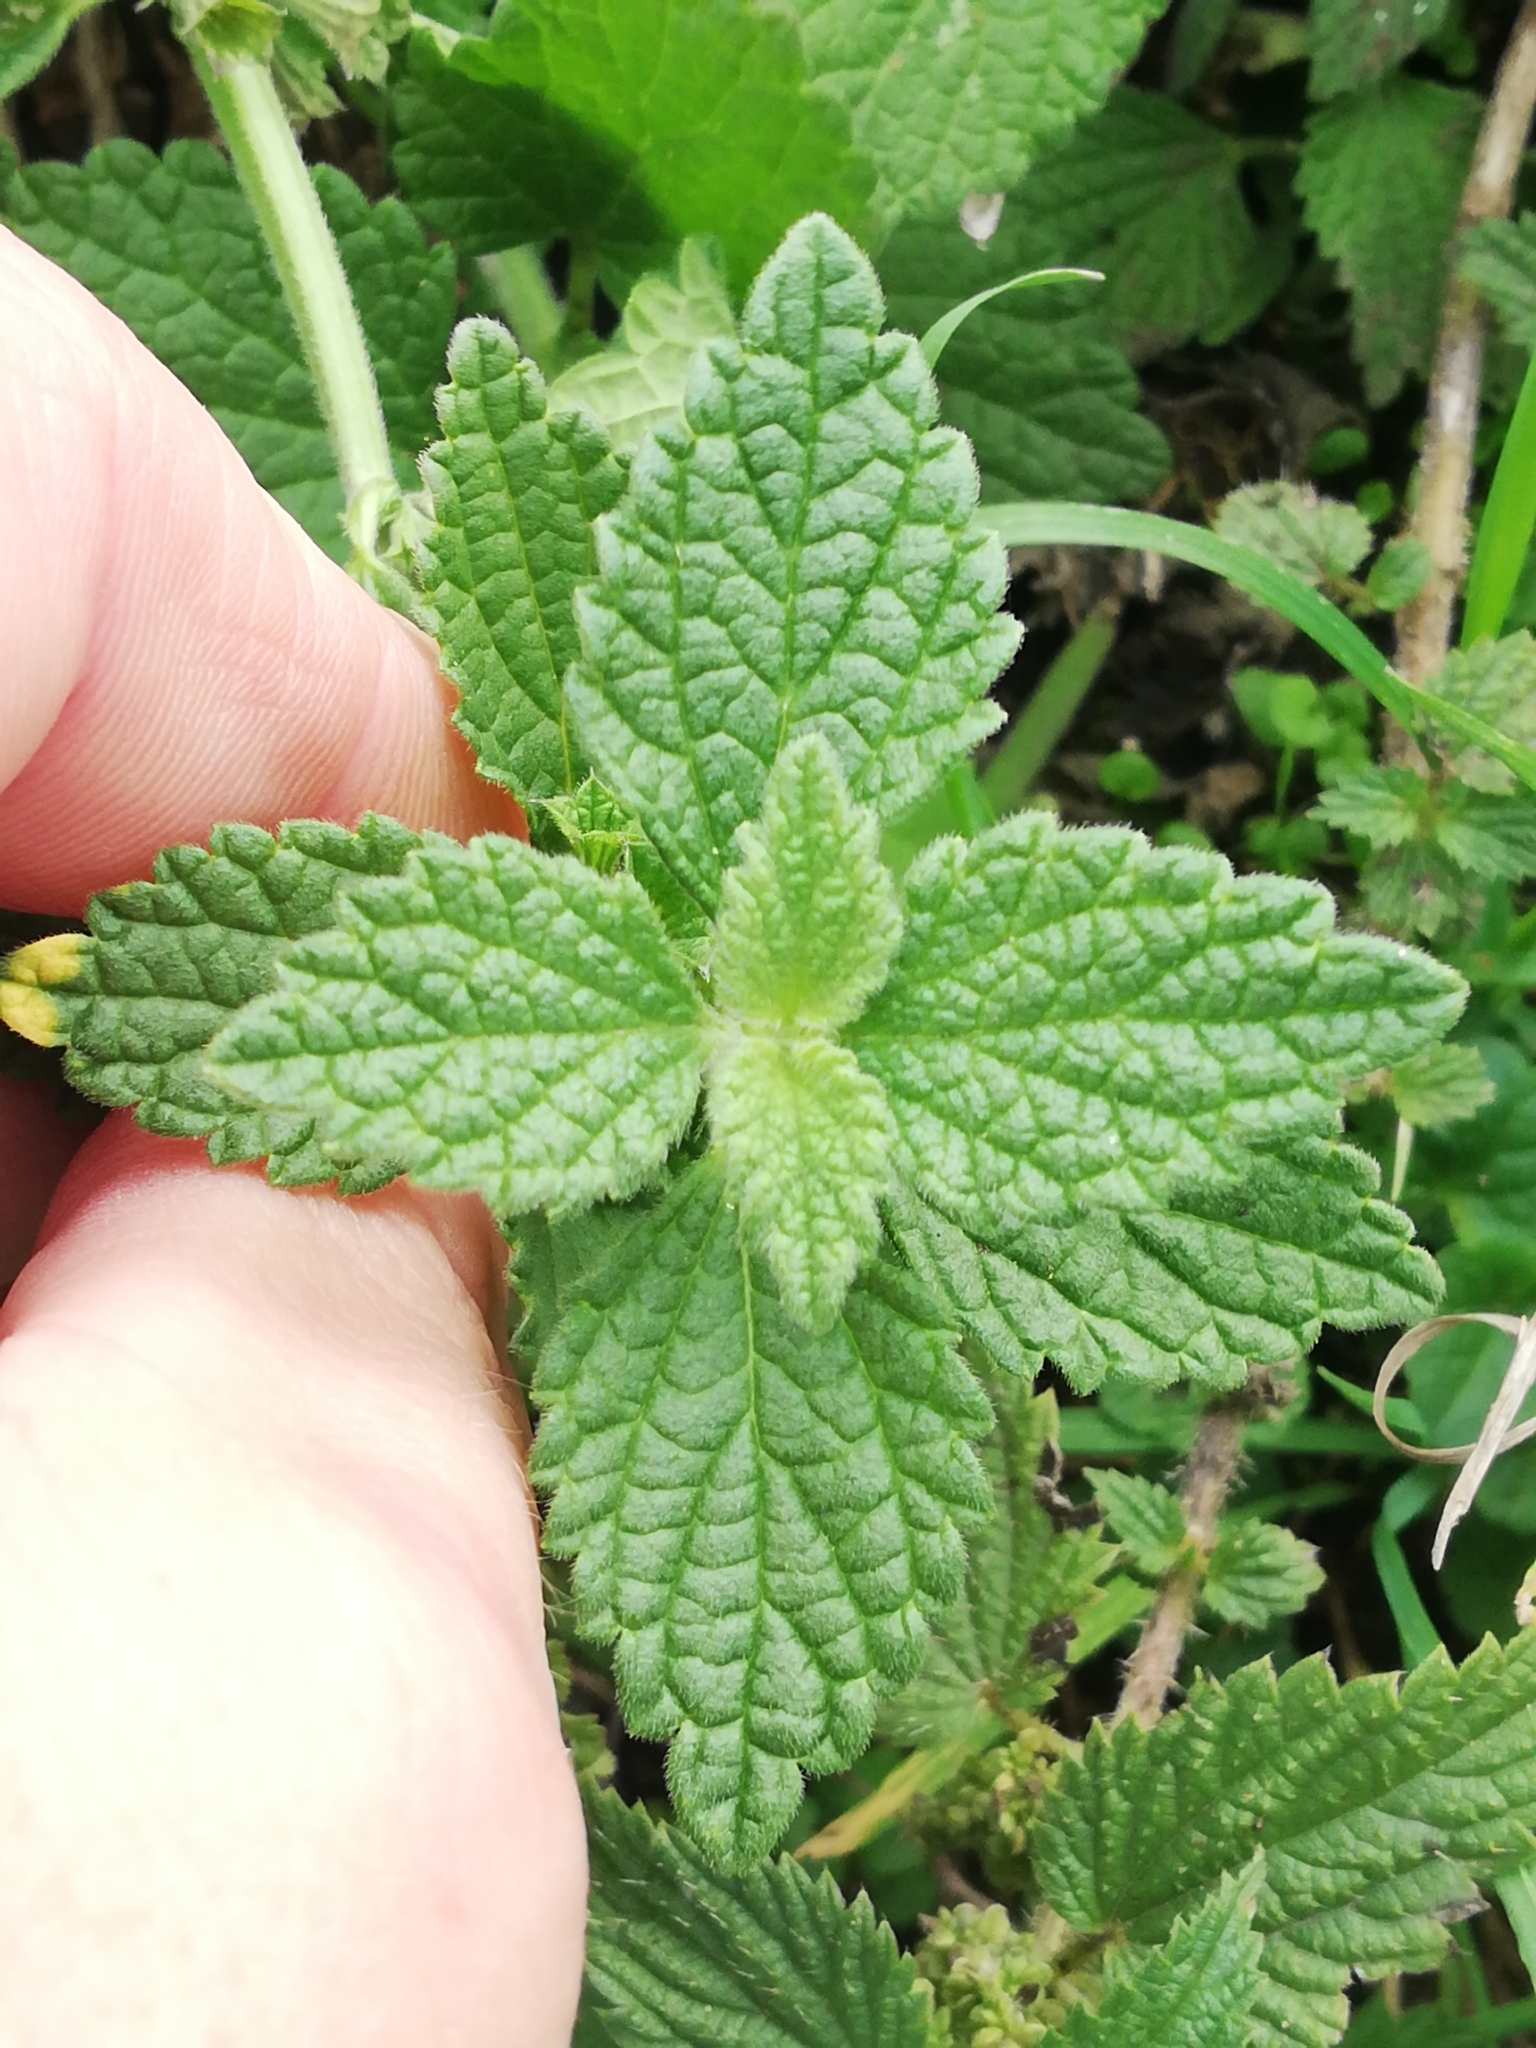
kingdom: Plantae
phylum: Tracheophyta
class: Magnoliopsida
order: Lamiales
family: Lamiaceae
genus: Ballota
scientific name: Ballota nigra
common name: Black horehound
